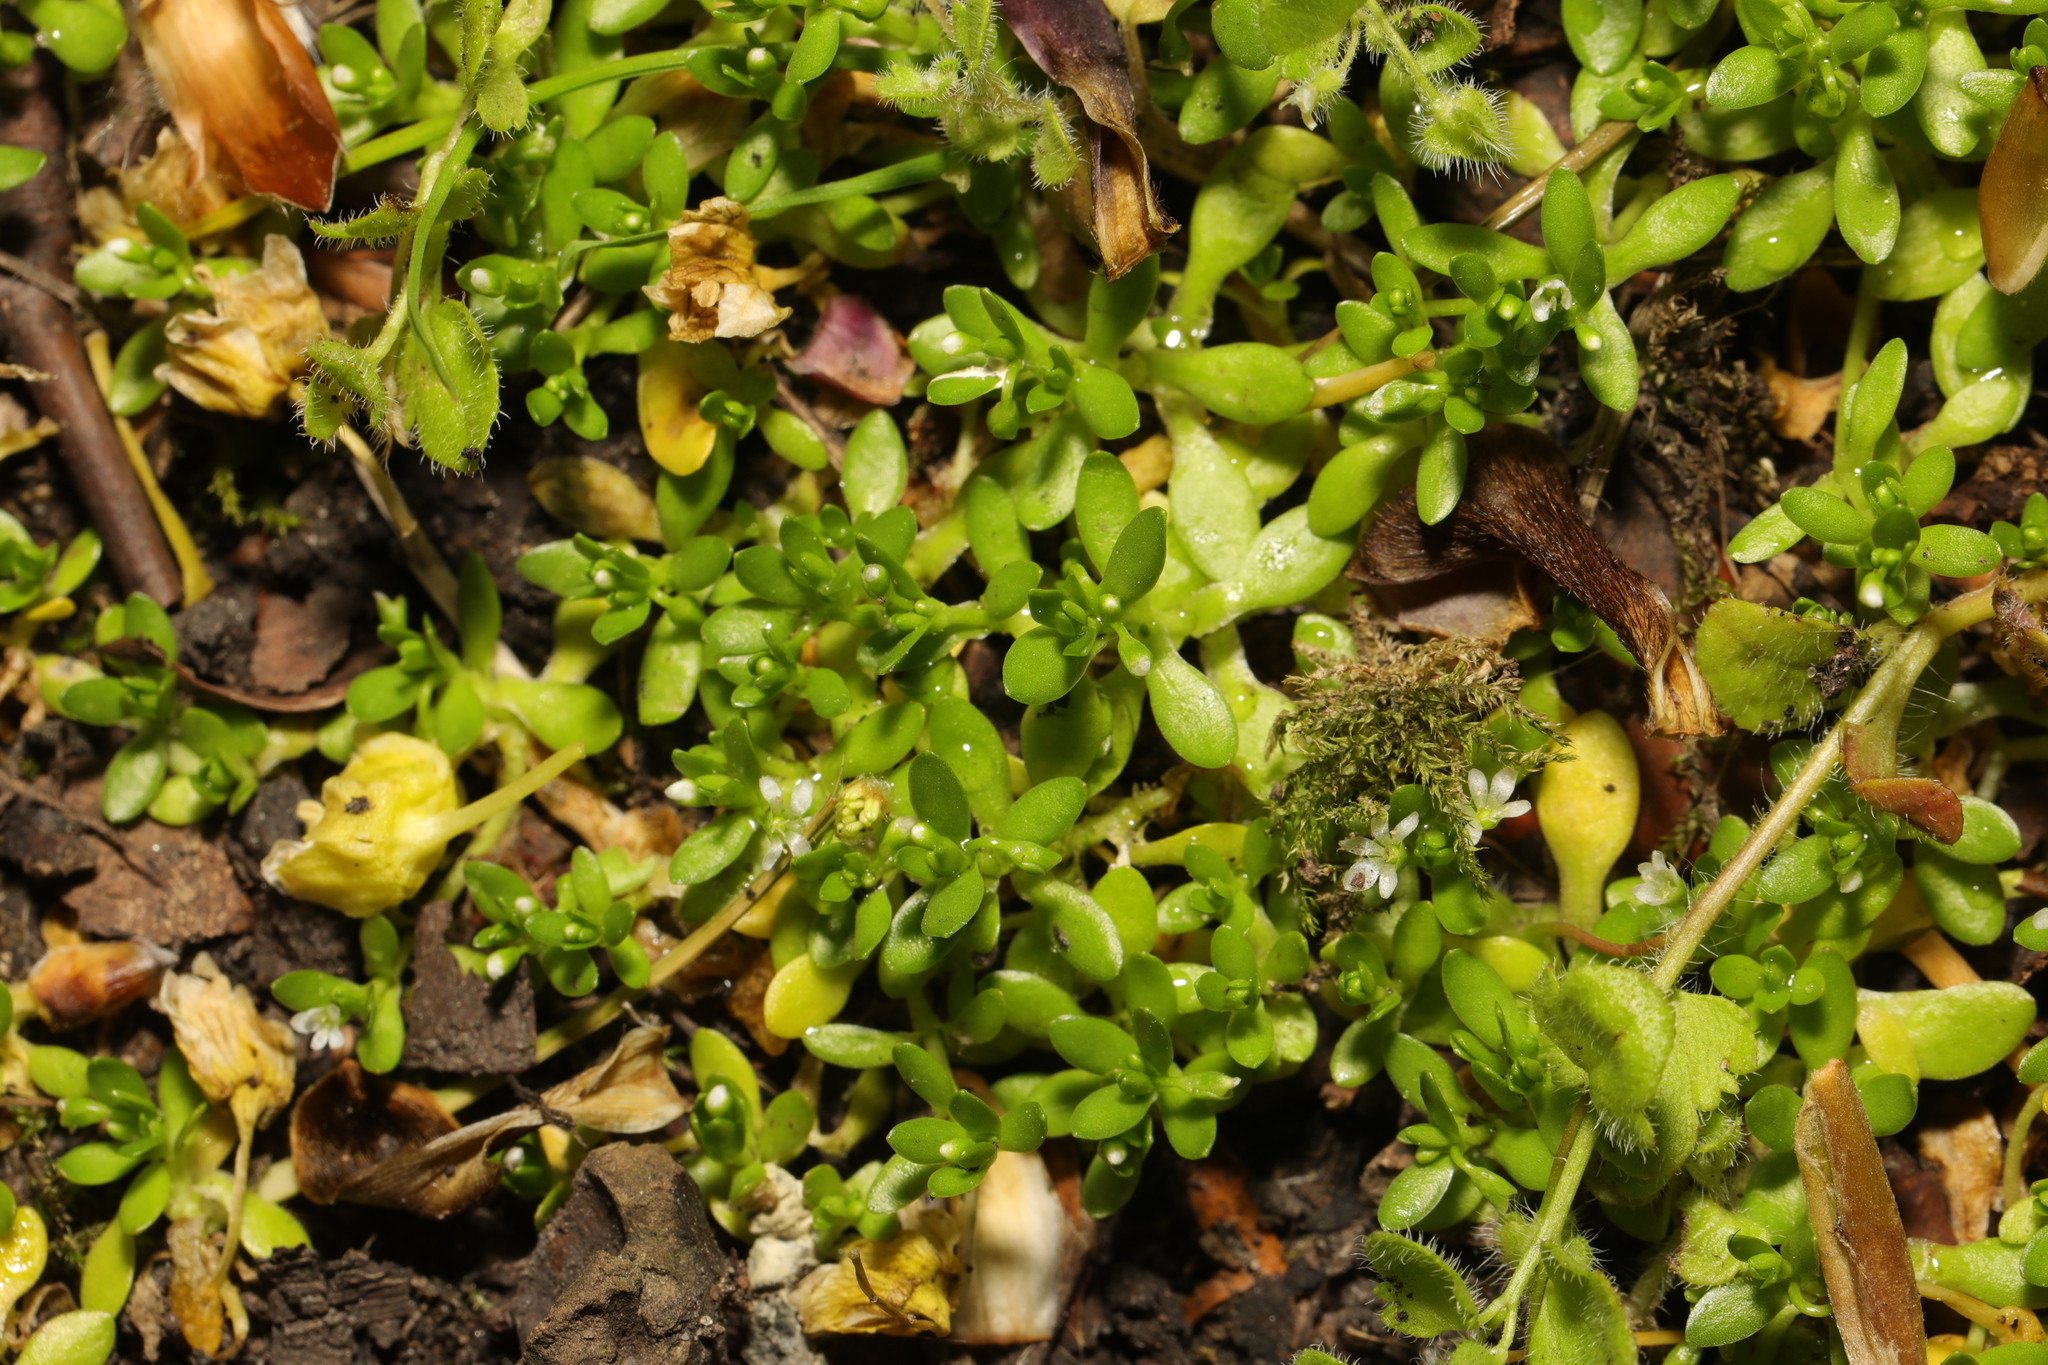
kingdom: Plantae
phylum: Tracheophyta
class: Magnoliopsida
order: Caryophyllales
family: Montiaceae
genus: Montia
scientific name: Montia fontana
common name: Blinks
